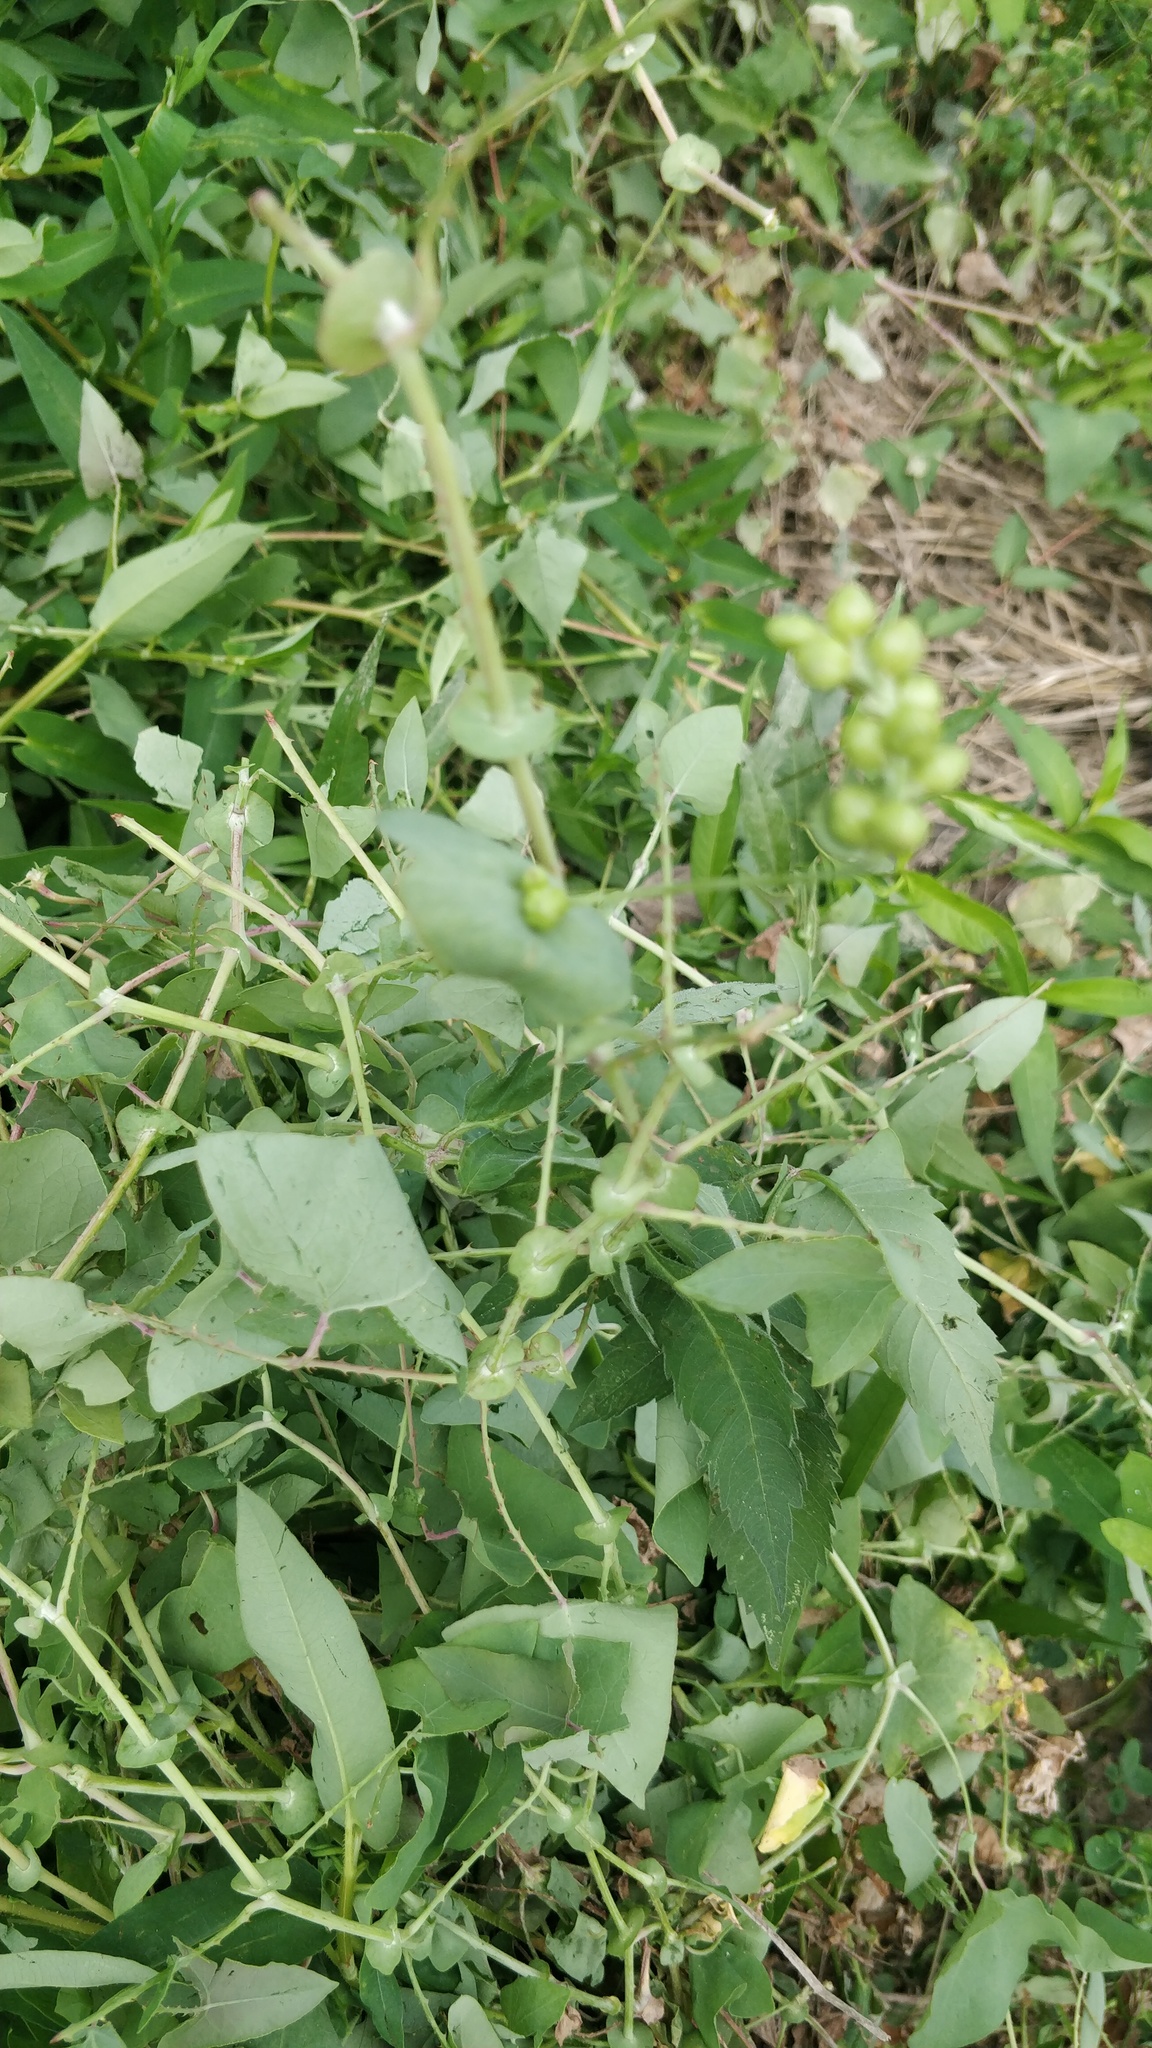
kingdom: Plantae
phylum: Tracheophyta
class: Magnoliopsida
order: Caryophyllales
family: Polygonaceae
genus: Persicaria
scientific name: Persicaria perfoliata
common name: Asiatic tearthumb
